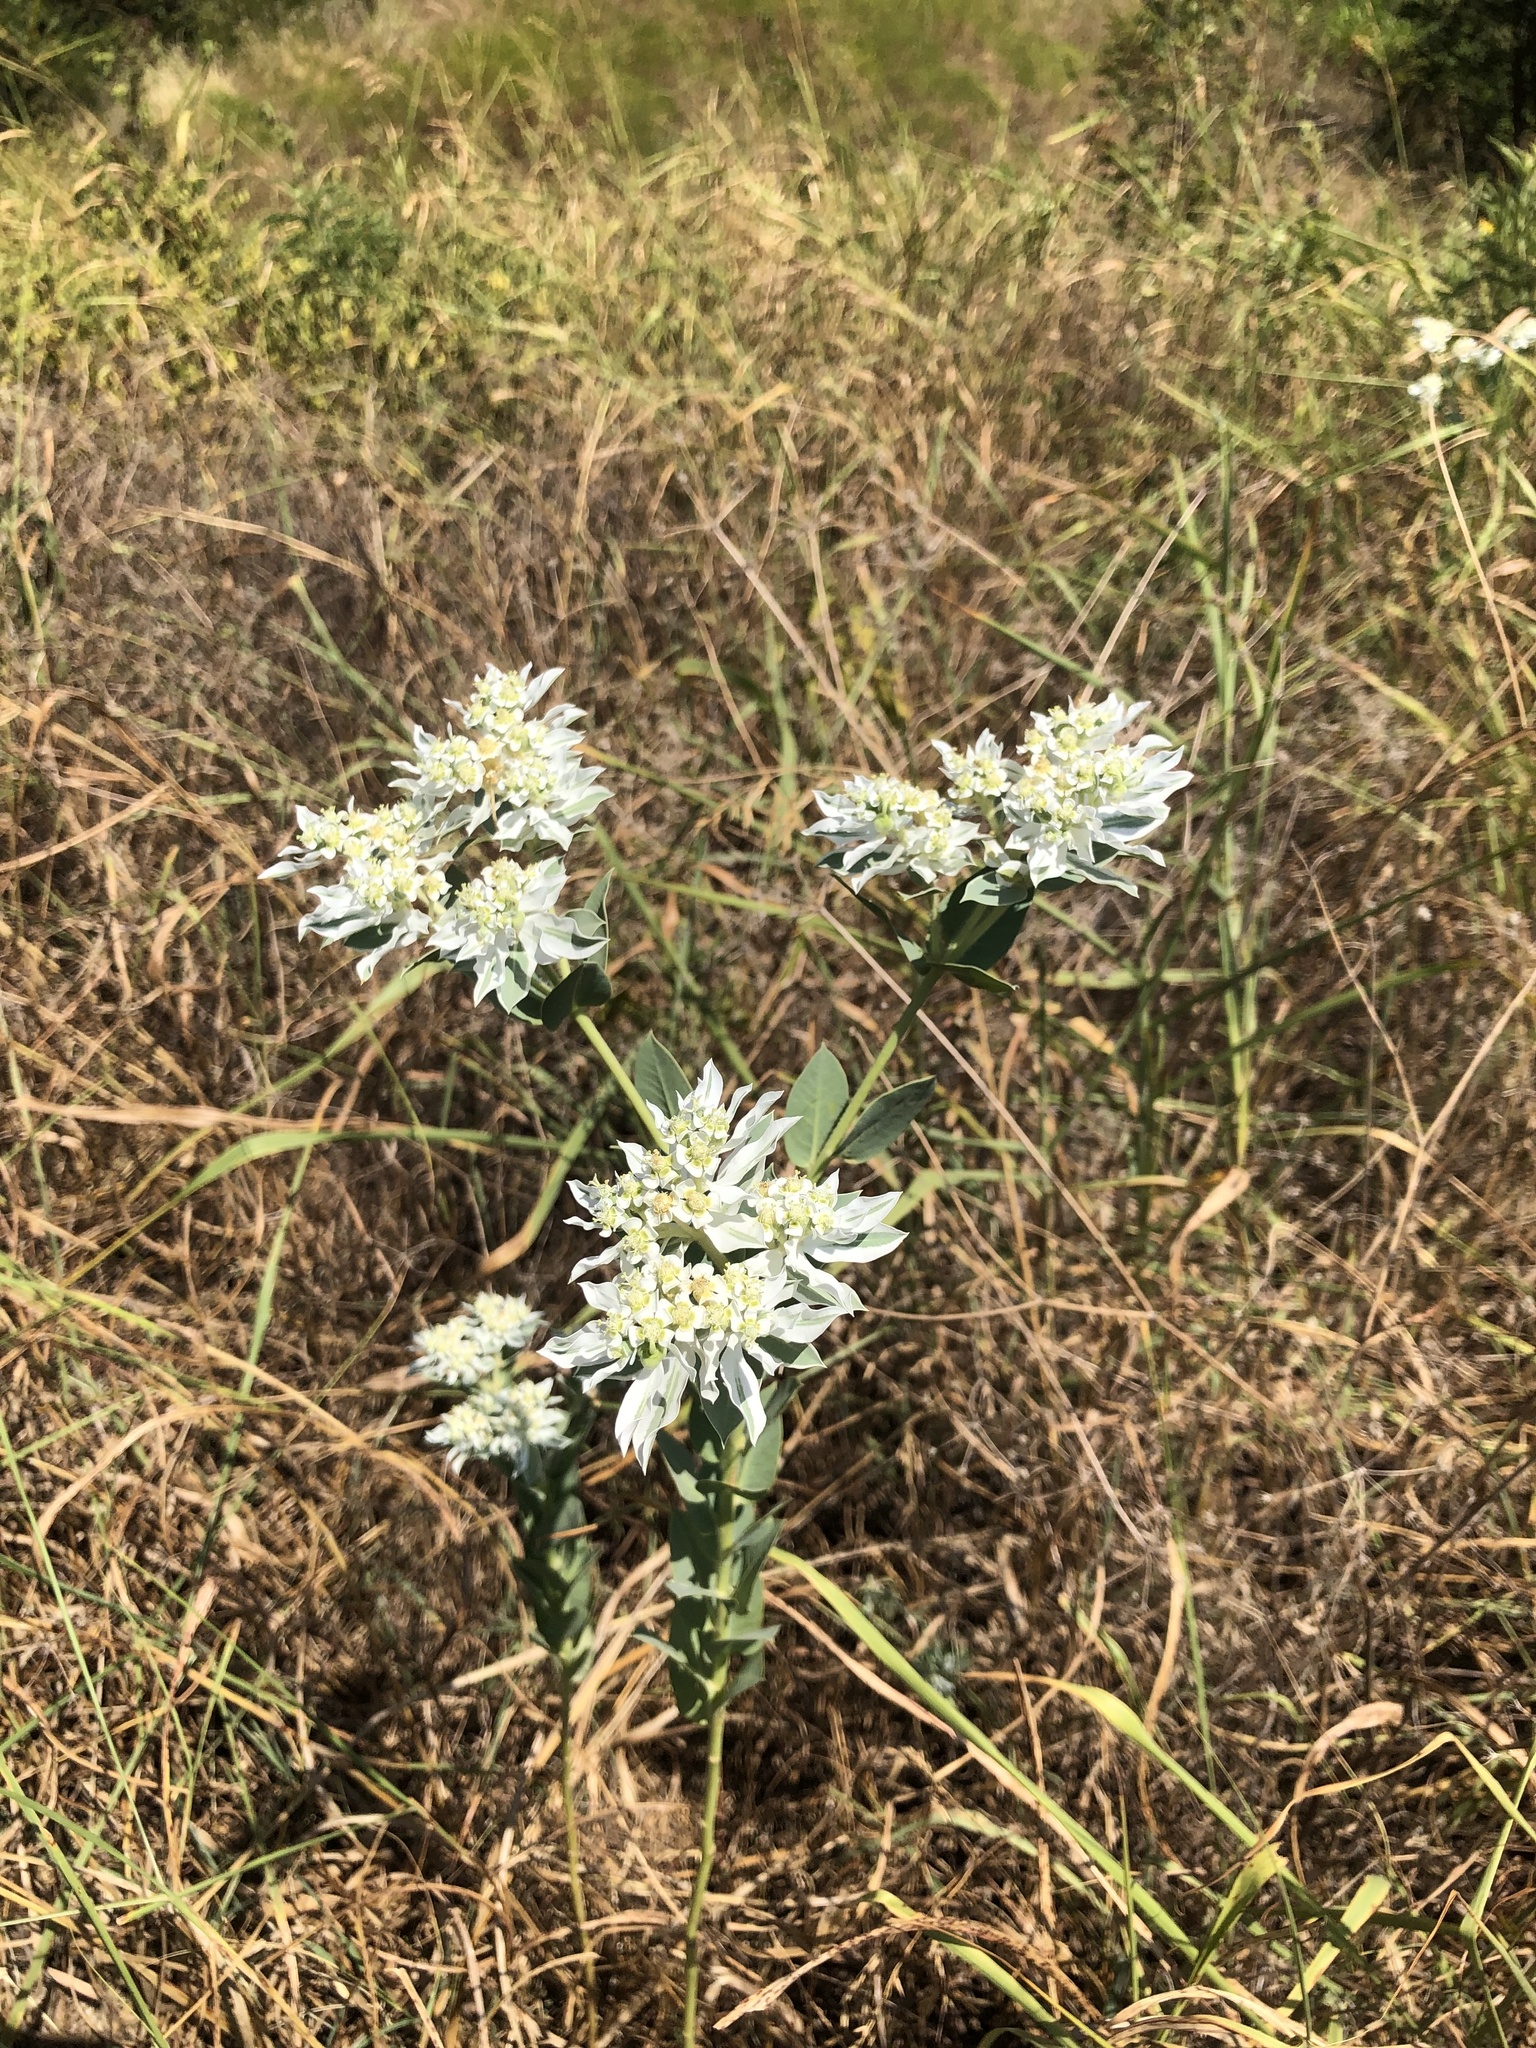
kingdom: Plantae
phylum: Tracheophyta
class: Magnoliopsida
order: Malpighiales
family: Euphorbiaceae
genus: Euphorbia
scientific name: Euphorbia marginata
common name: Ghostweed
